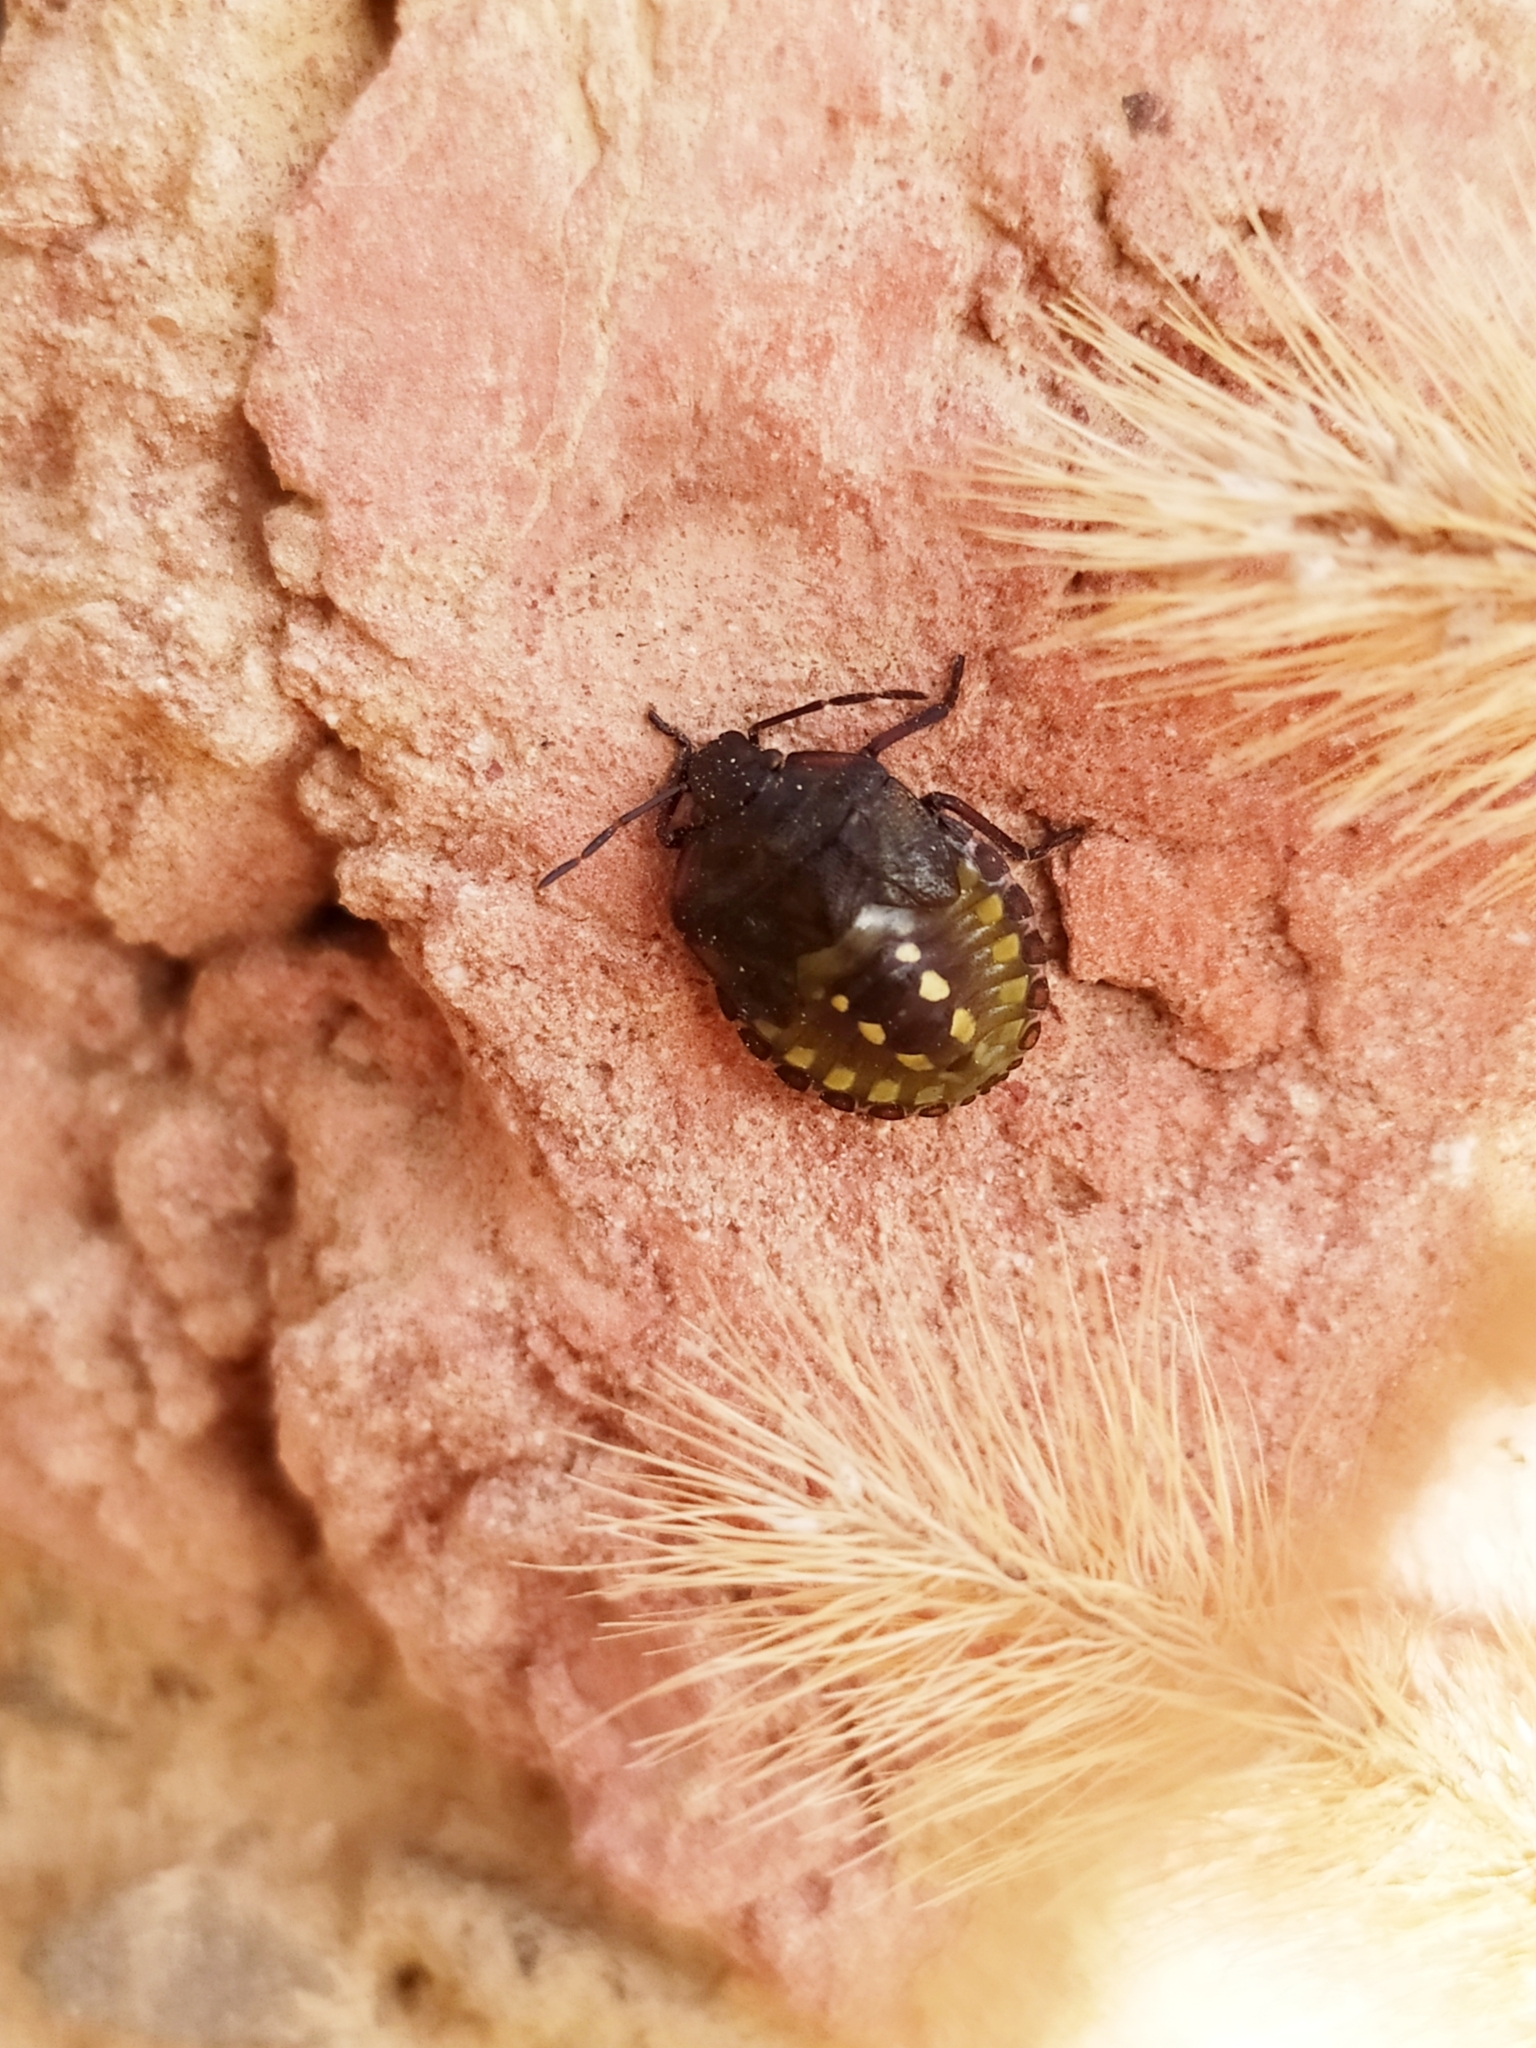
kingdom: Animalia
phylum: Arthropoda
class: Insecta
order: Hemiptera
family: Pentatomidae
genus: Nezara
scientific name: Nezara viridula
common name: Southern green stink bug
